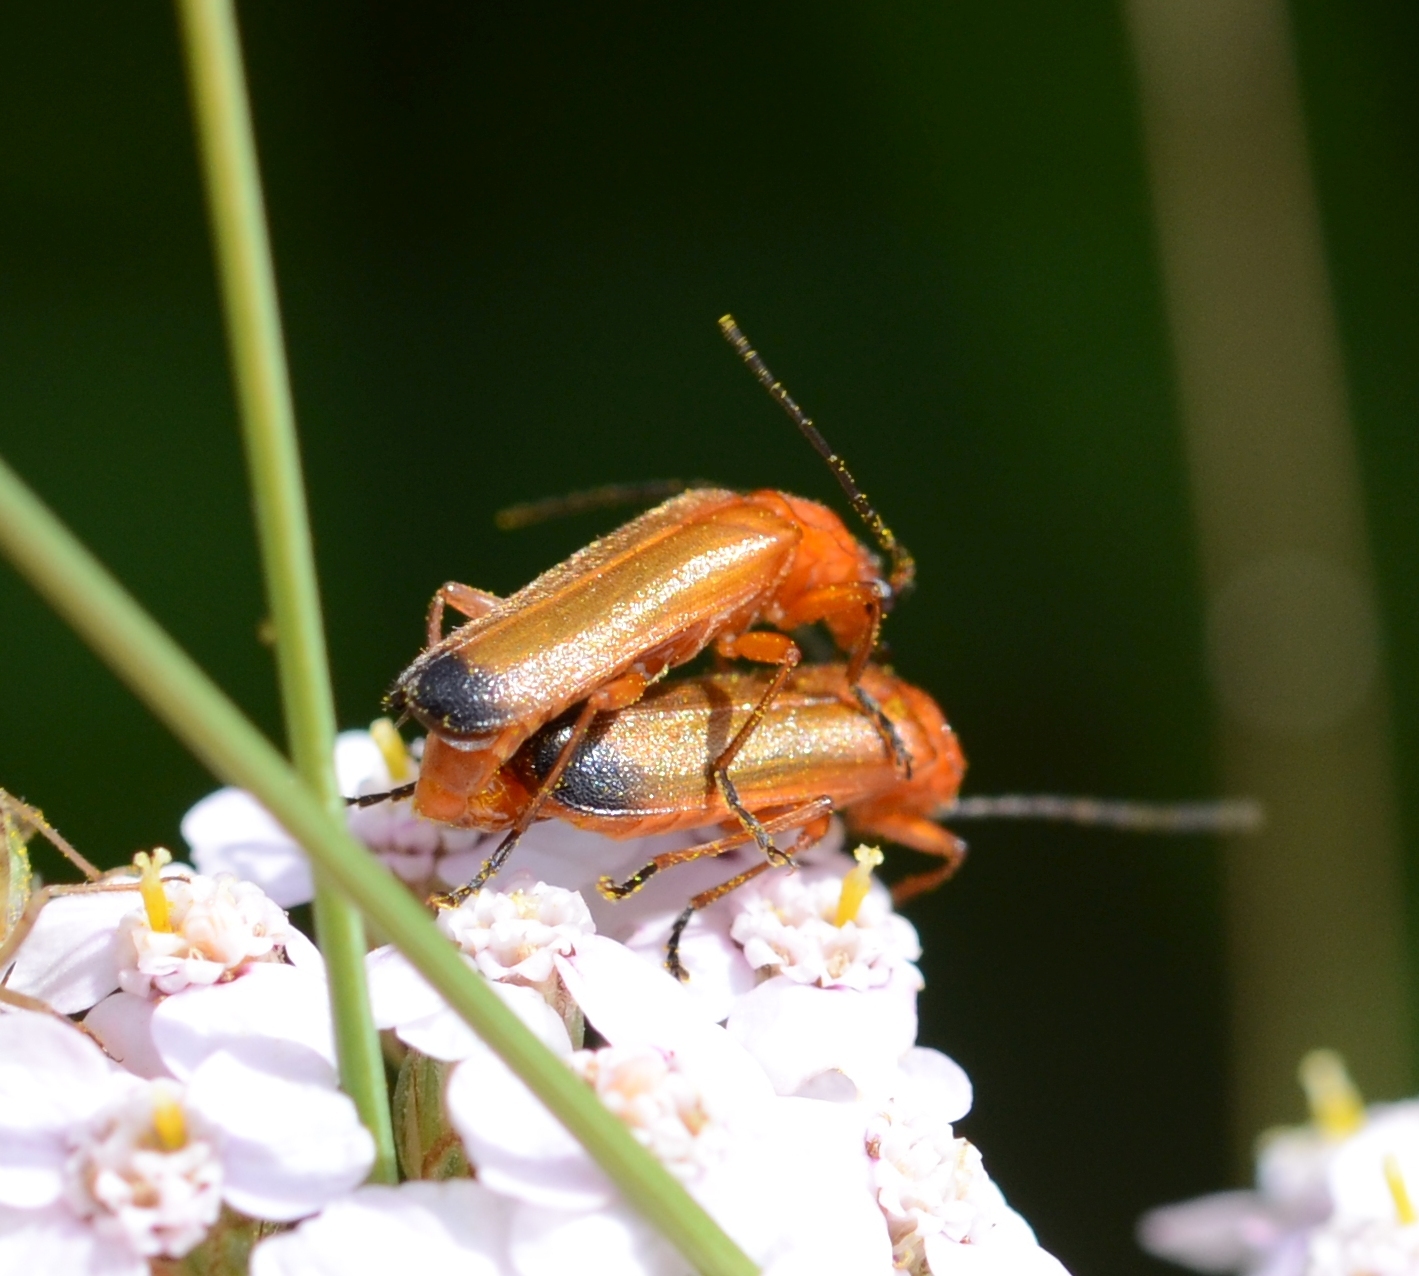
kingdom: Animalia
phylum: Arthropoda
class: Insecta
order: Coleoptera
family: Cantharidae
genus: Rhagonycha
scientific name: Rhagonycha fulva
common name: Common red soldier beetle
